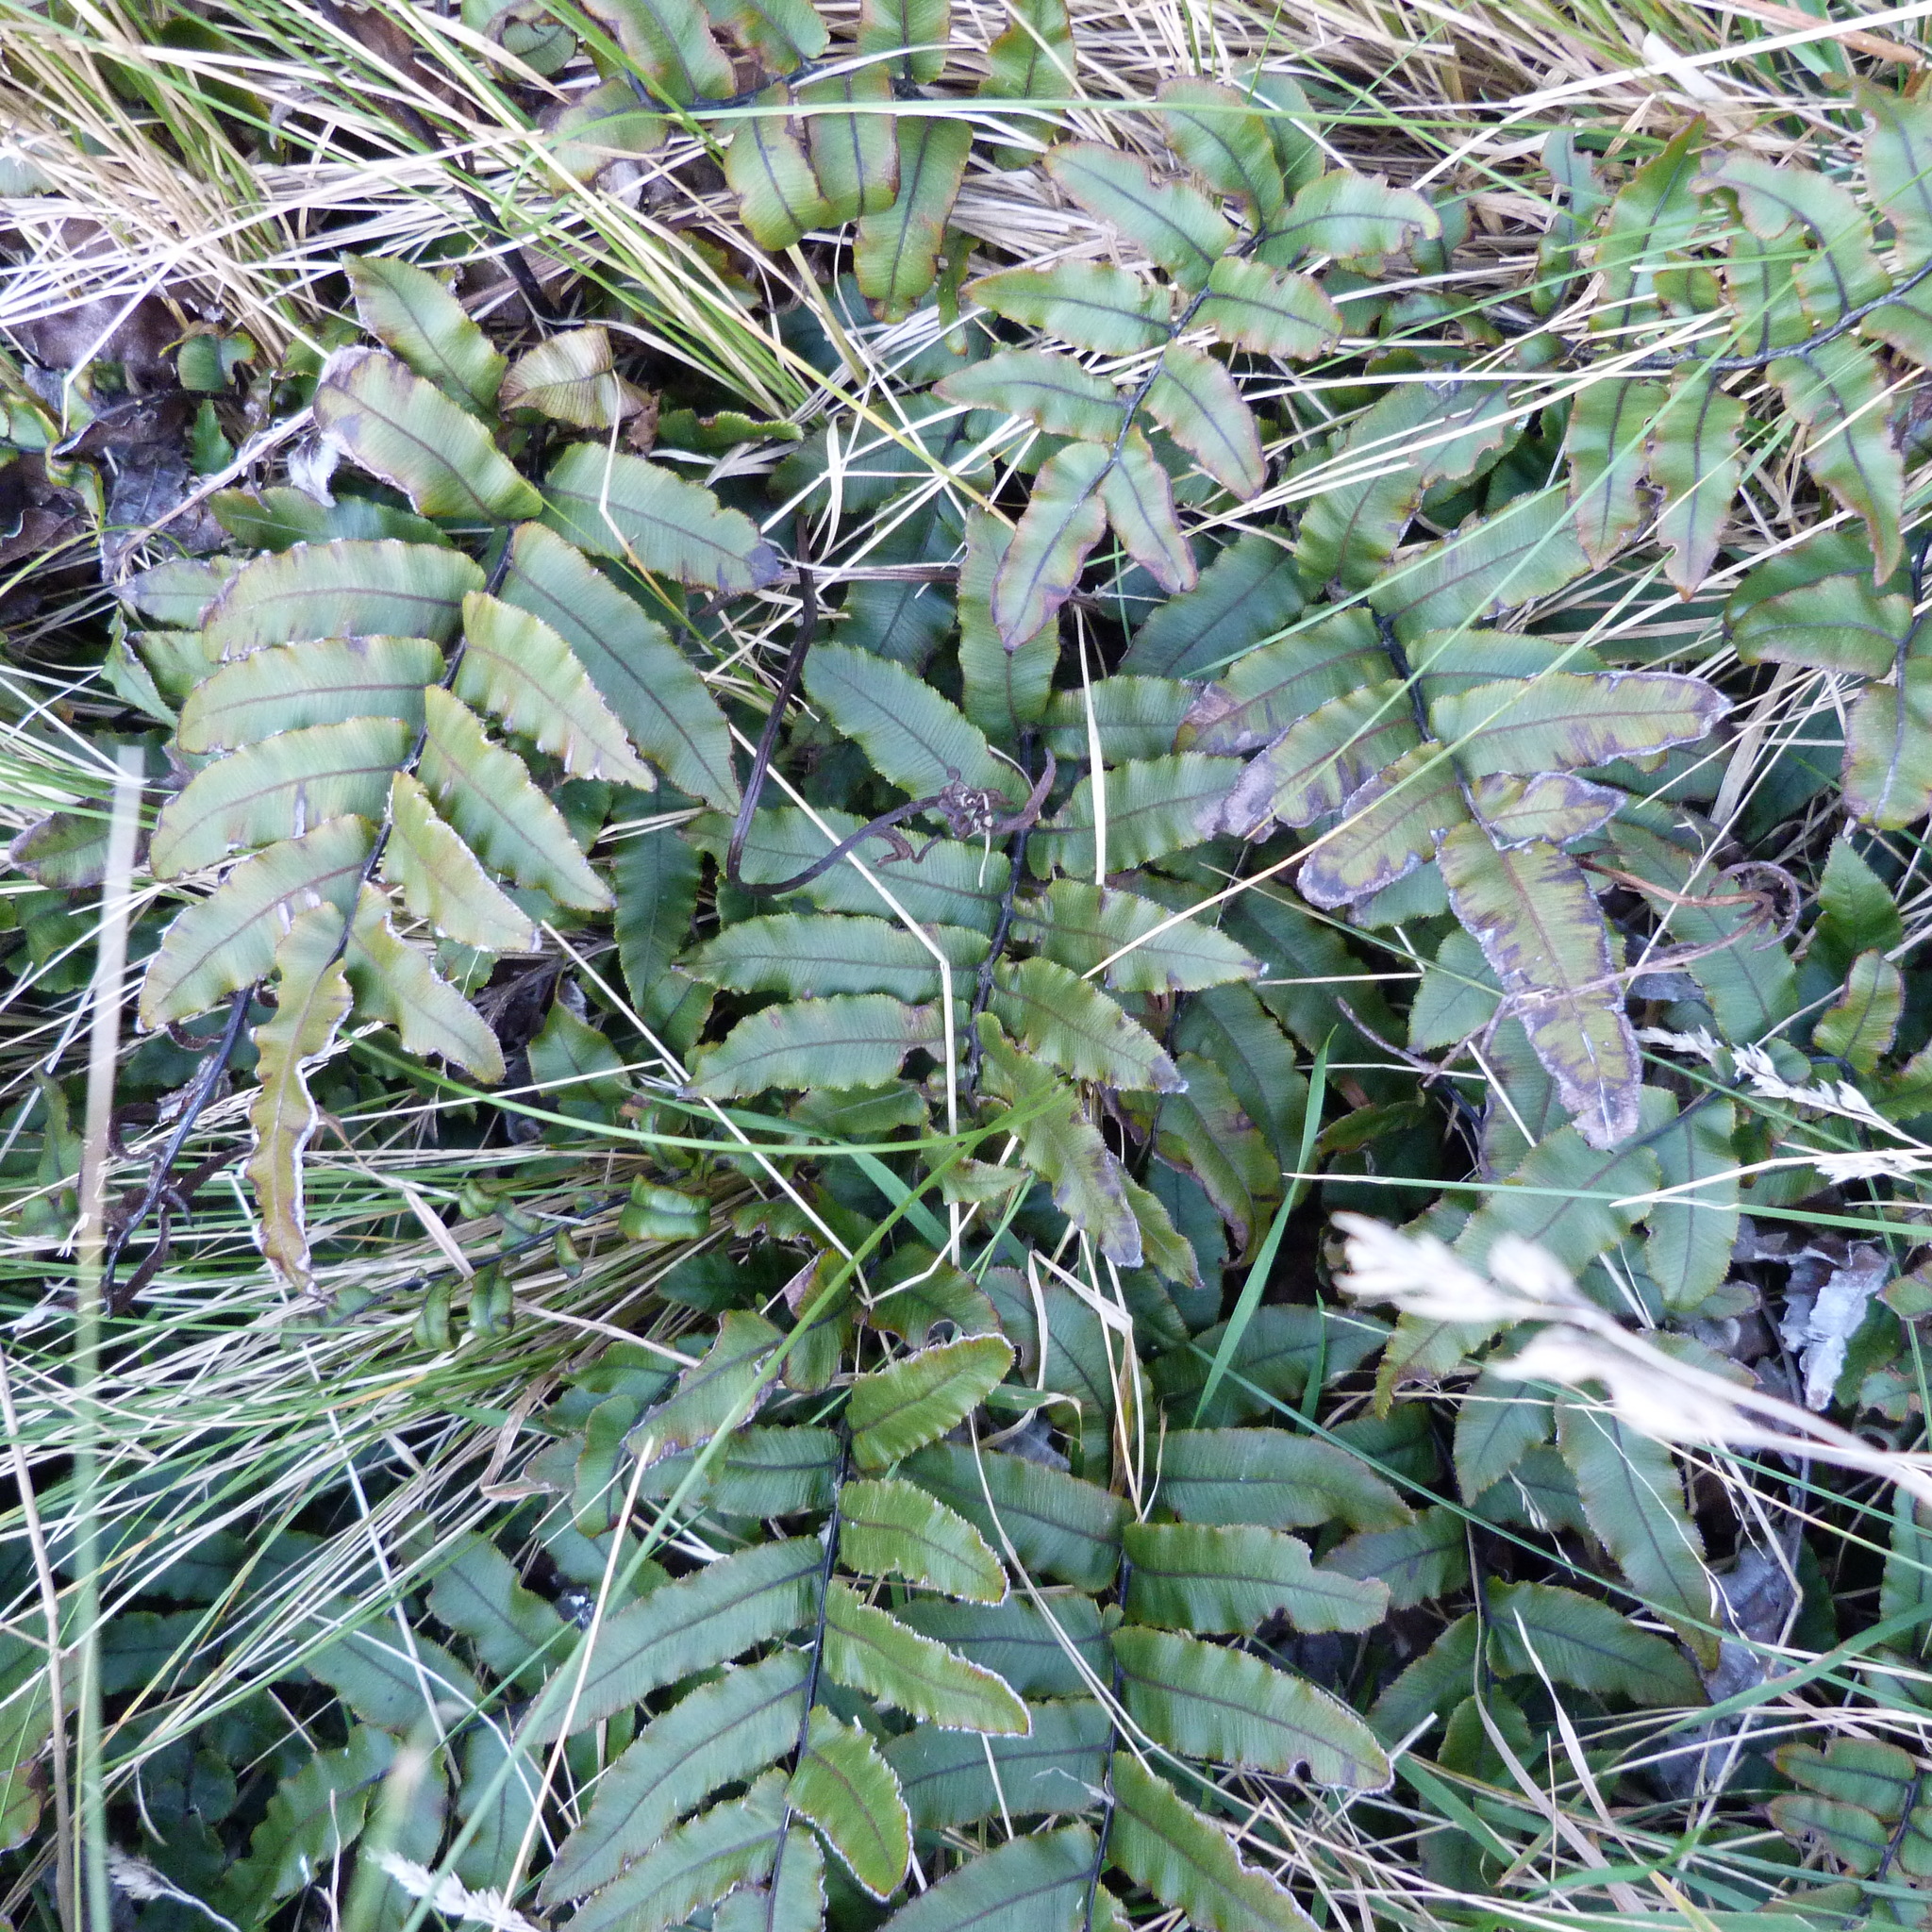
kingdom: Plantae
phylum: Tracheophyta
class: Polypodiopsida
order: Polypodiales
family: Blechnaceae
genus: Parablechnum
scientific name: Parablechnum procerum
